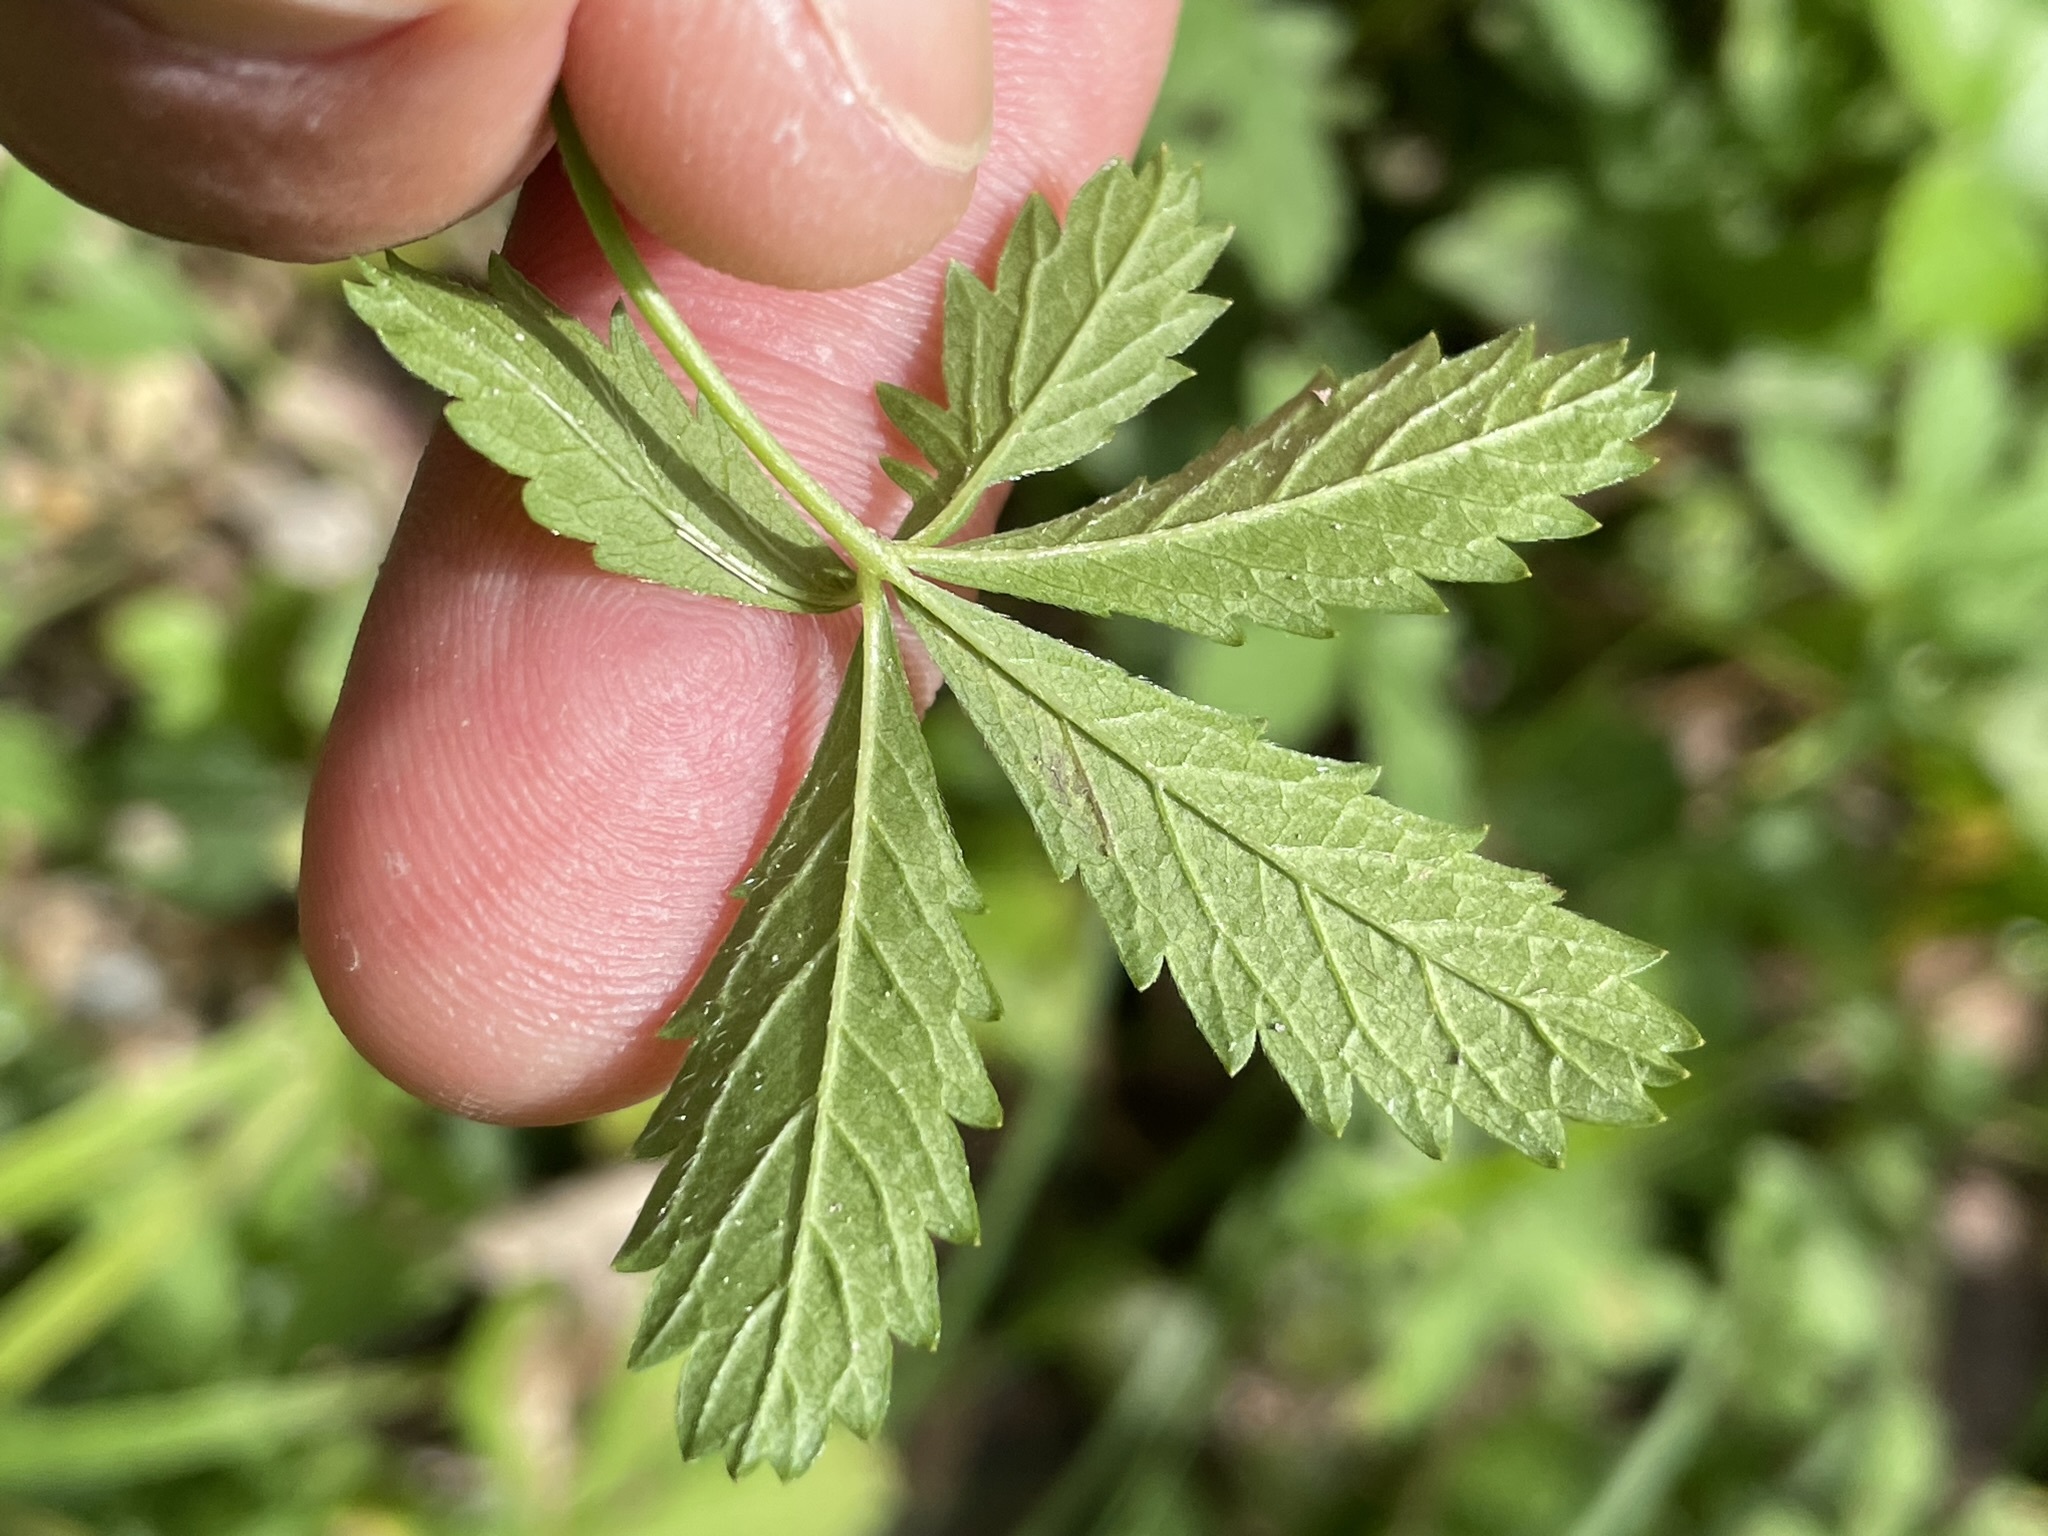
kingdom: Plantae
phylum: Tracheophyta
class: Magnoliopsida
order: Rosales
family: Rosaceae
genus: Potentilla
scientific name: Potentilla reptans
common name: Creeping cinquefoil
